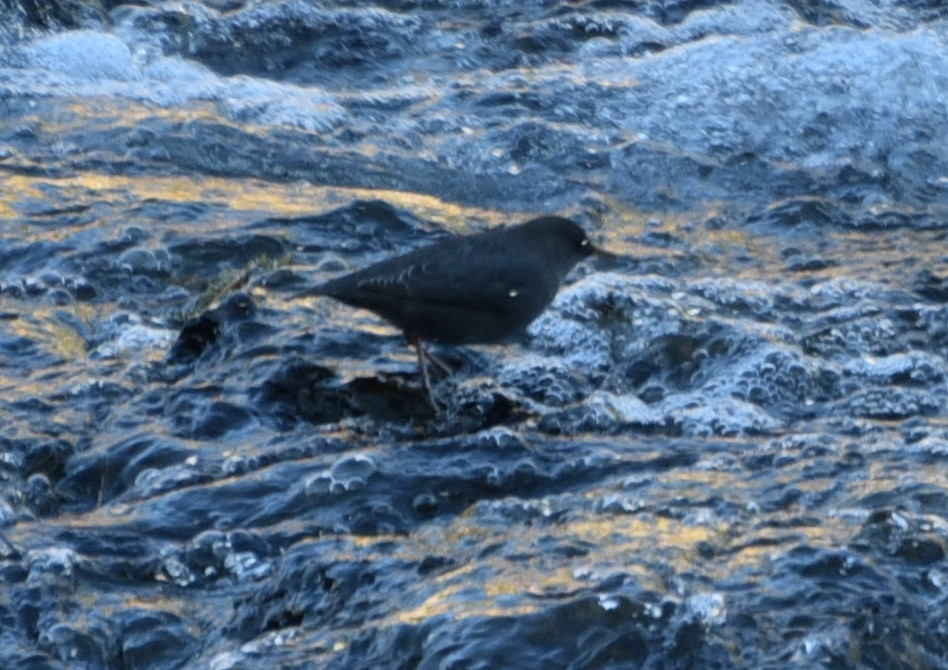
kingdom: Animalia
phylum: Chordata
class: Aves
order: Passeriformes
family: Cinclidae
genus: Cinclus
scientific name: Cinclus mexicanus
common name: American dipper
